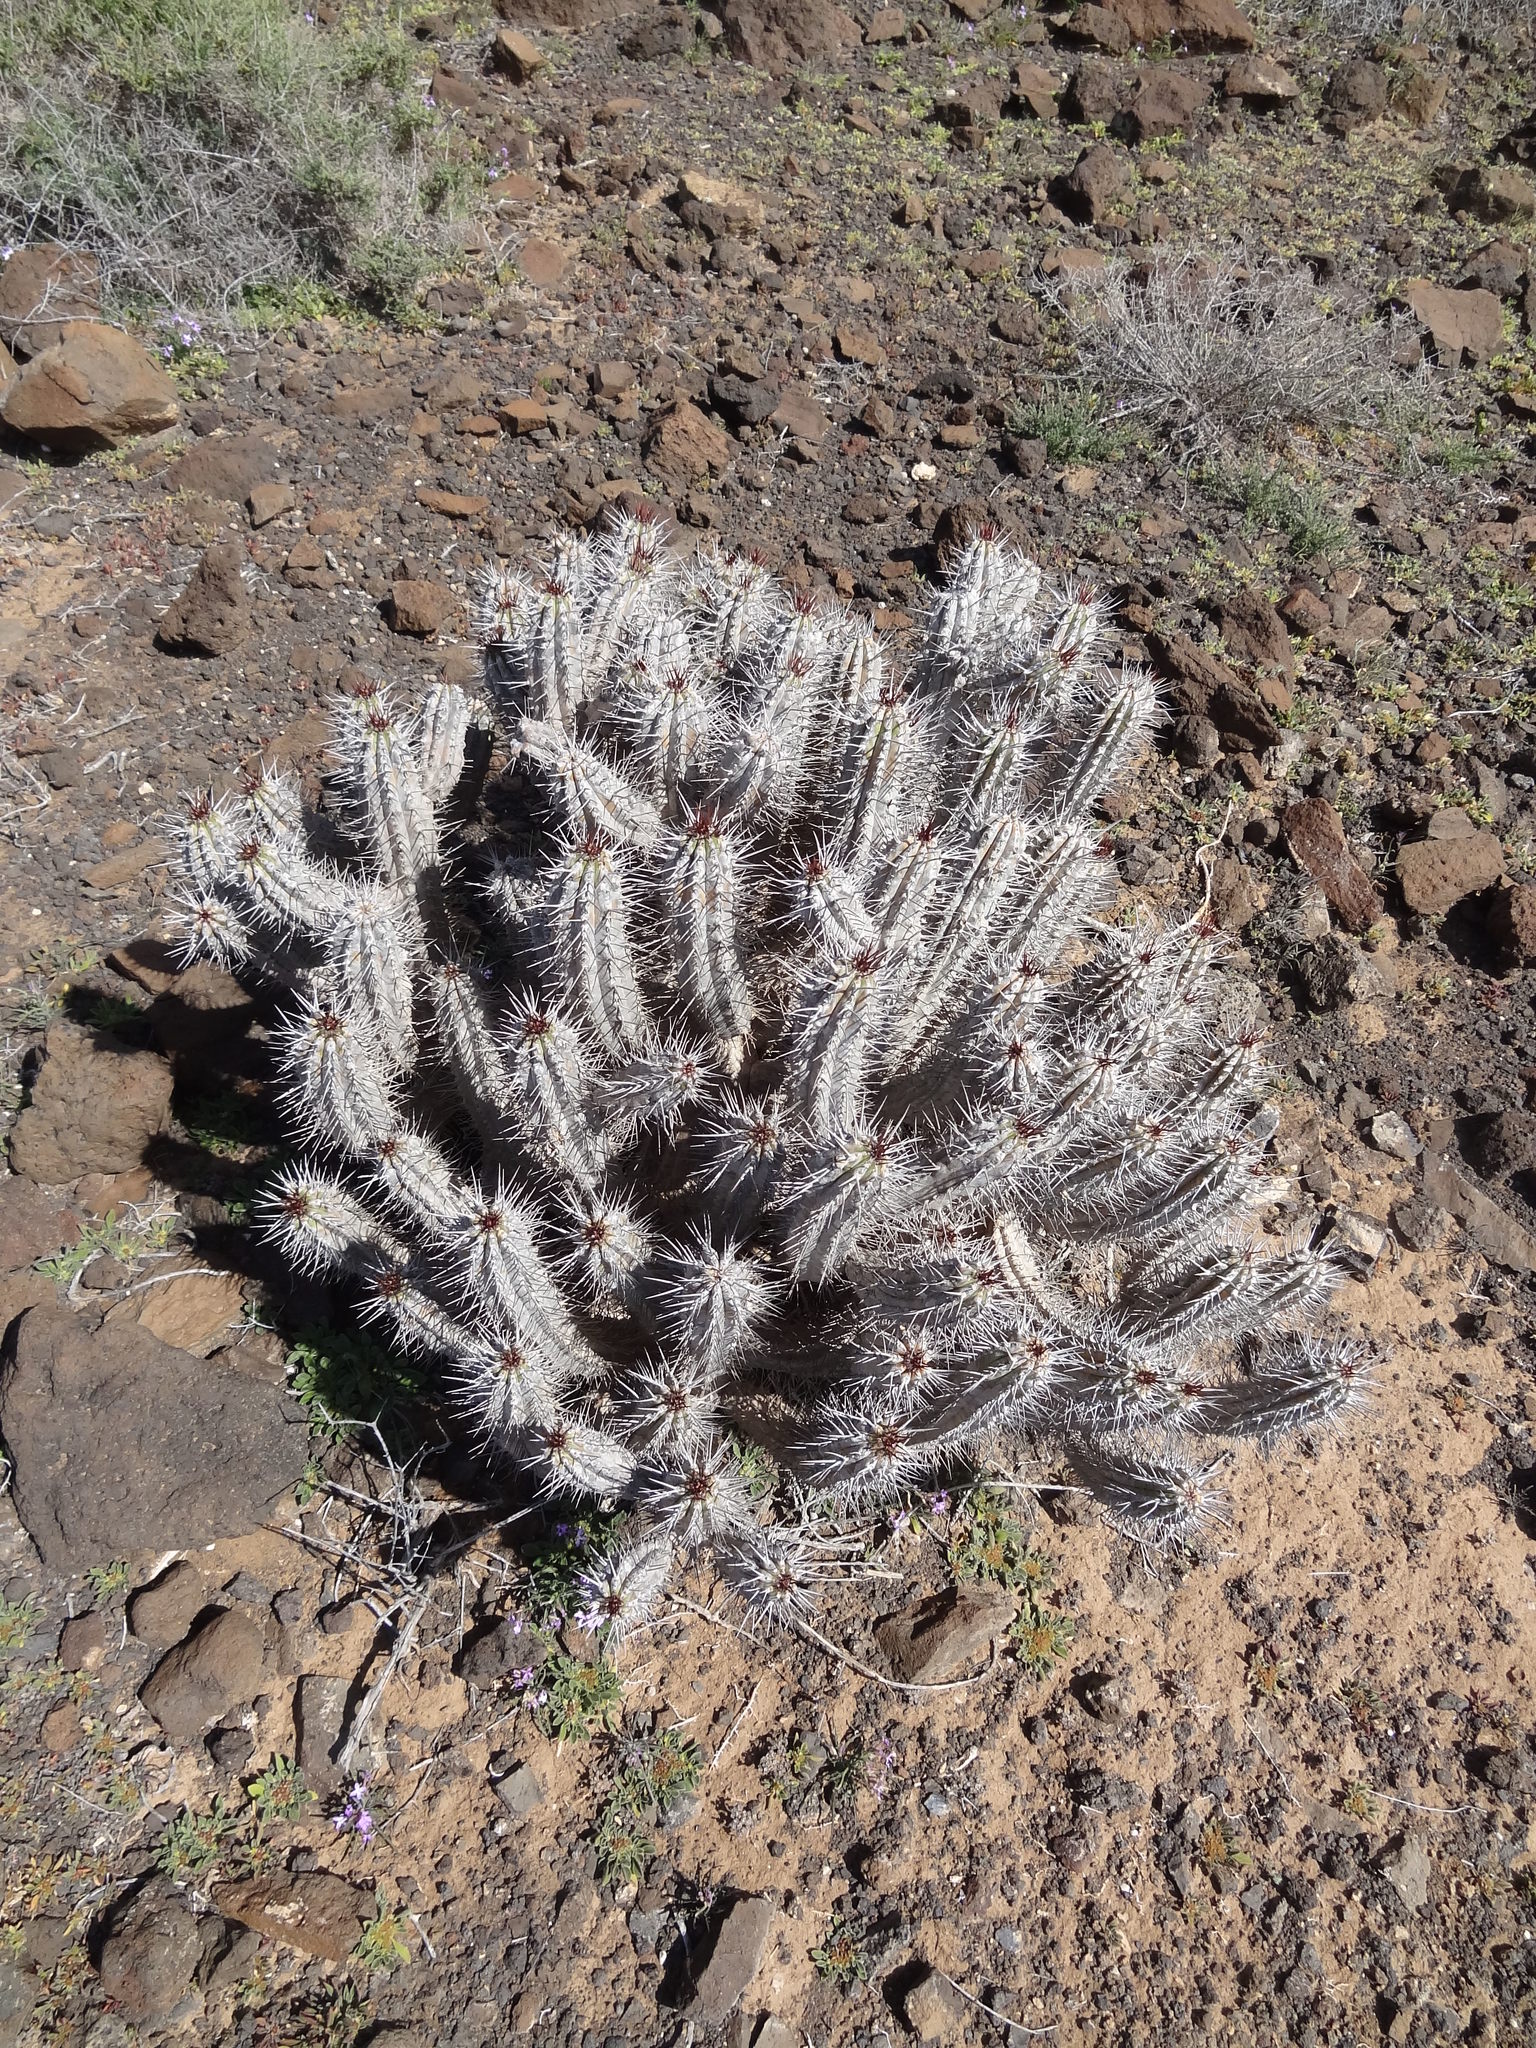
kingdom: Plantae
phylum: Tracheophyta
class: Magnoliopsida
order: Malpighiales
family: Euphorbiaceae
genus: Euphorbia
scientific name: Euphorbia handiensis
